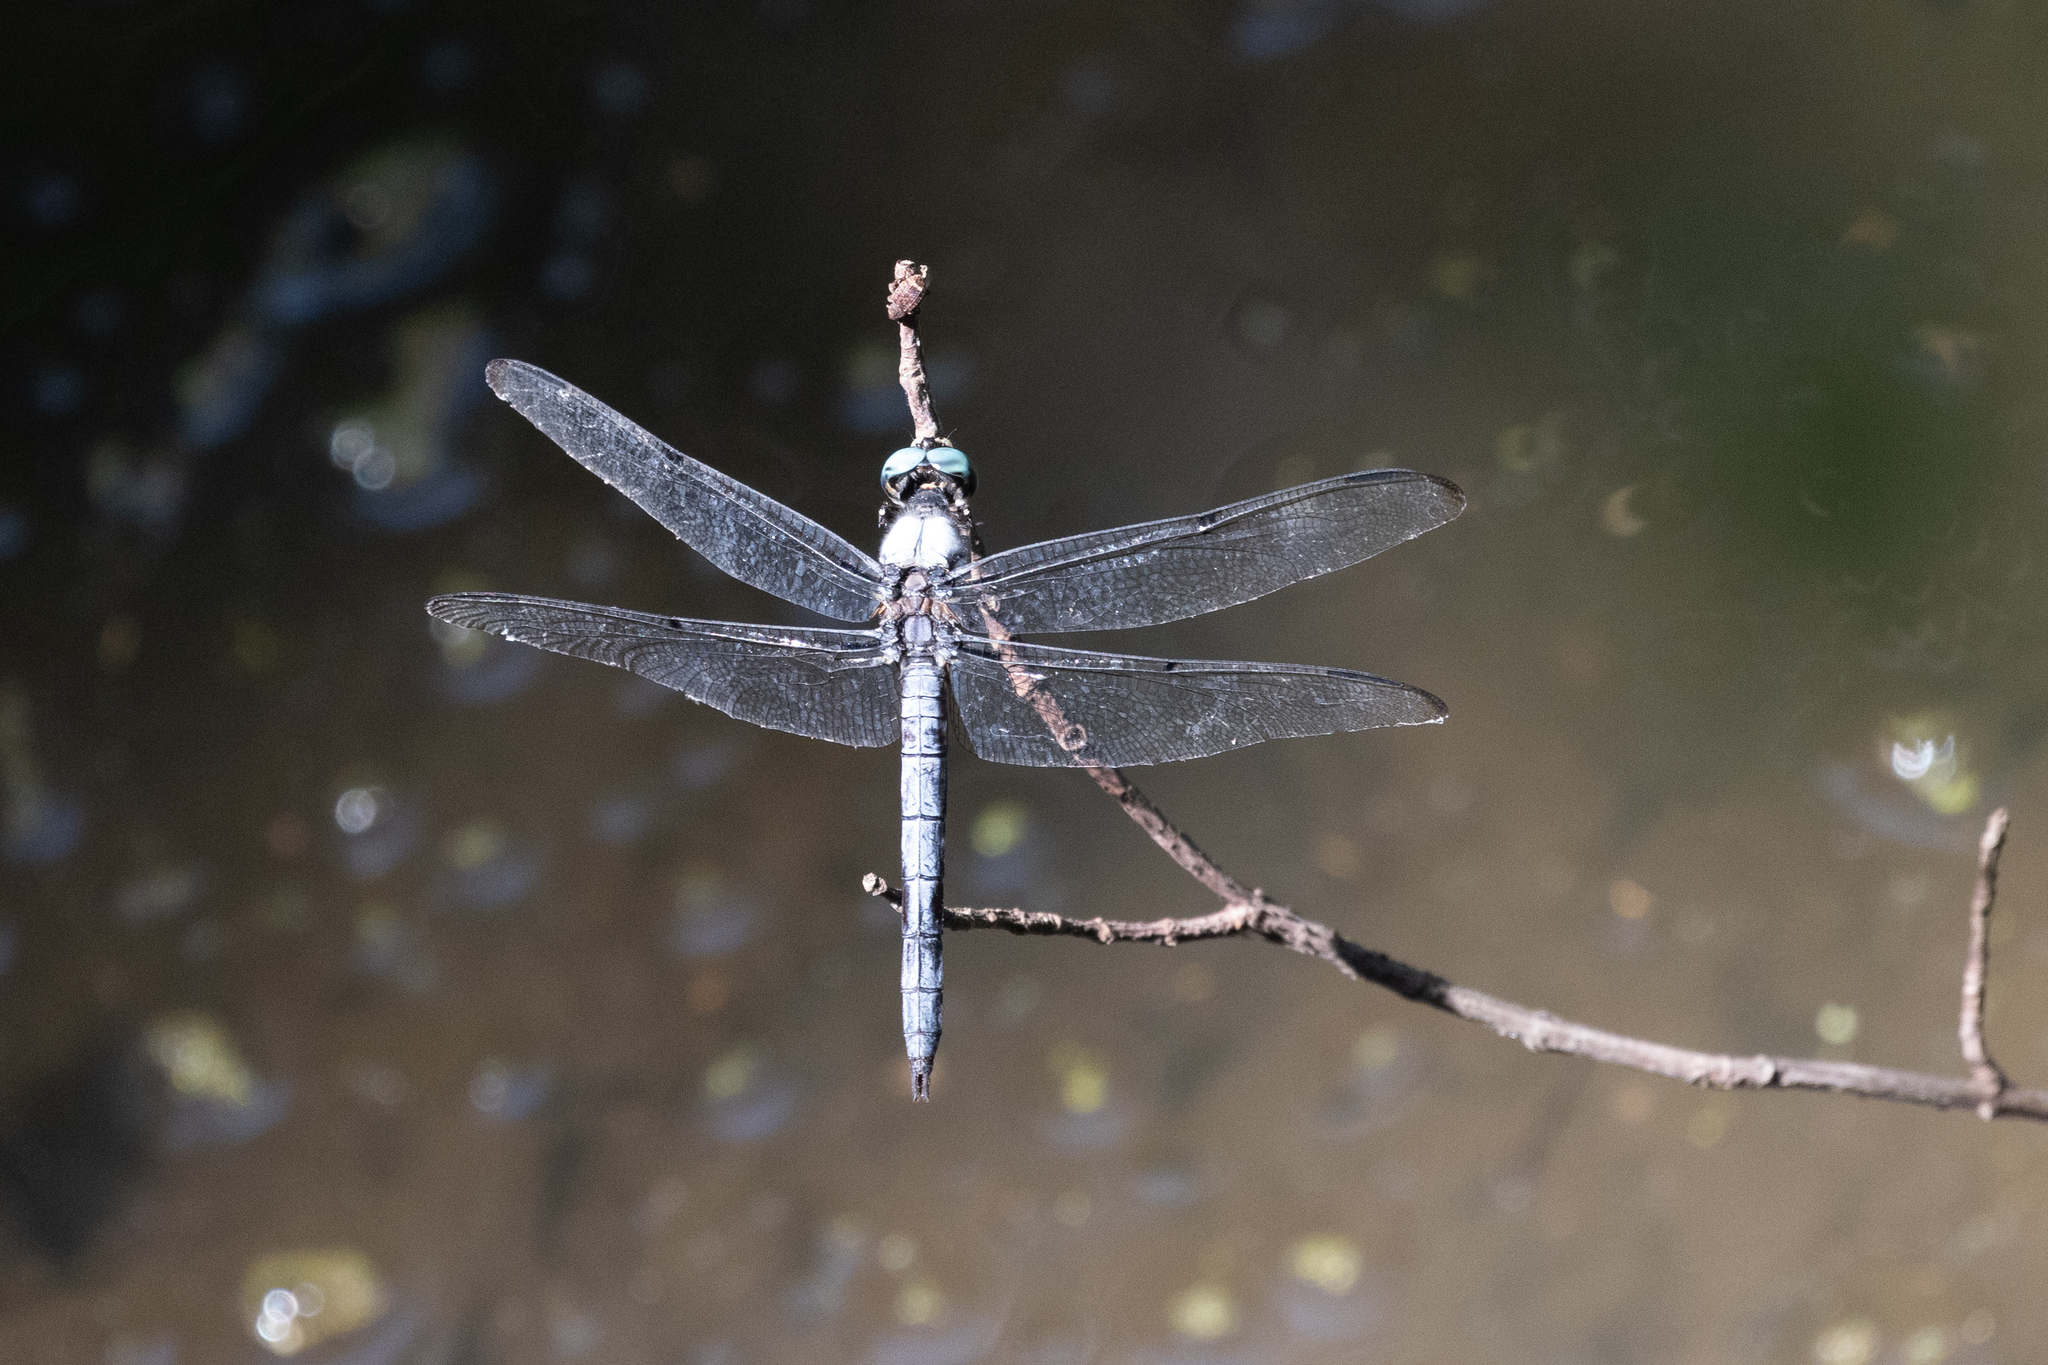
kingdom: Animalia
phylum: Arthropoda
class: Insecta
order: Odonata
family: Libellulidae
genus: Libellula
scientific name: Libellula vibrans
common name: Great blue skimmer
